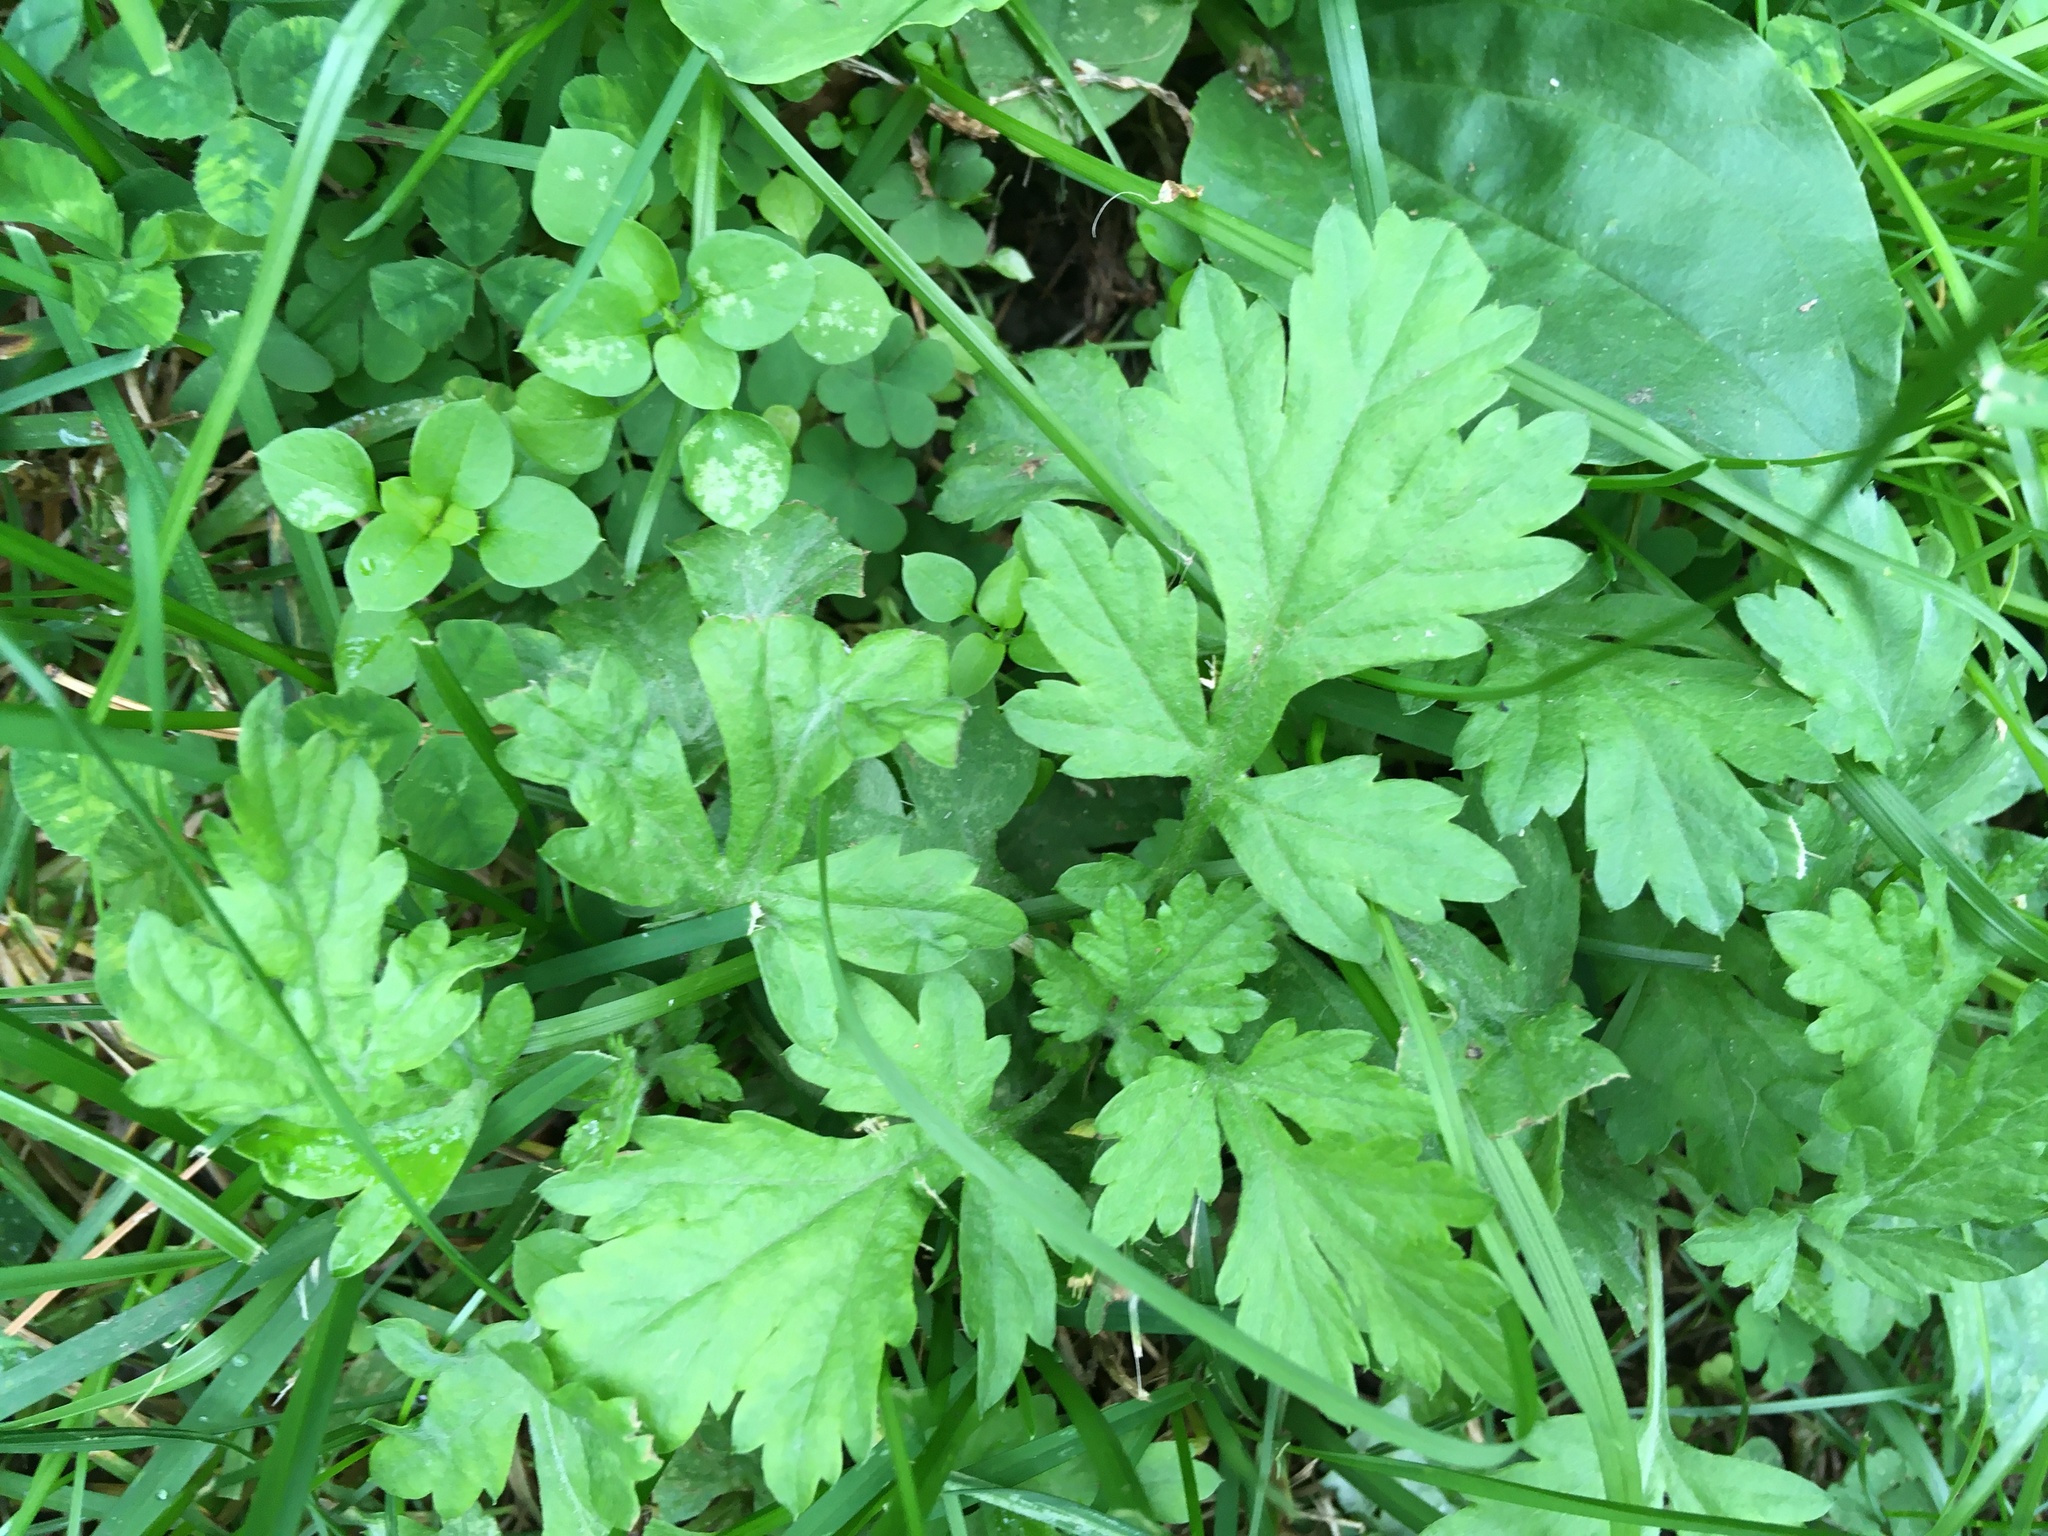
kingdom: Plantae
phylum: Tracheophyta
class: Magnoliopsida
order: Asterales
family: Asteraceae
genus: Artemisia
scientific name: Artemisia vulgaris
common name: Mugwort
